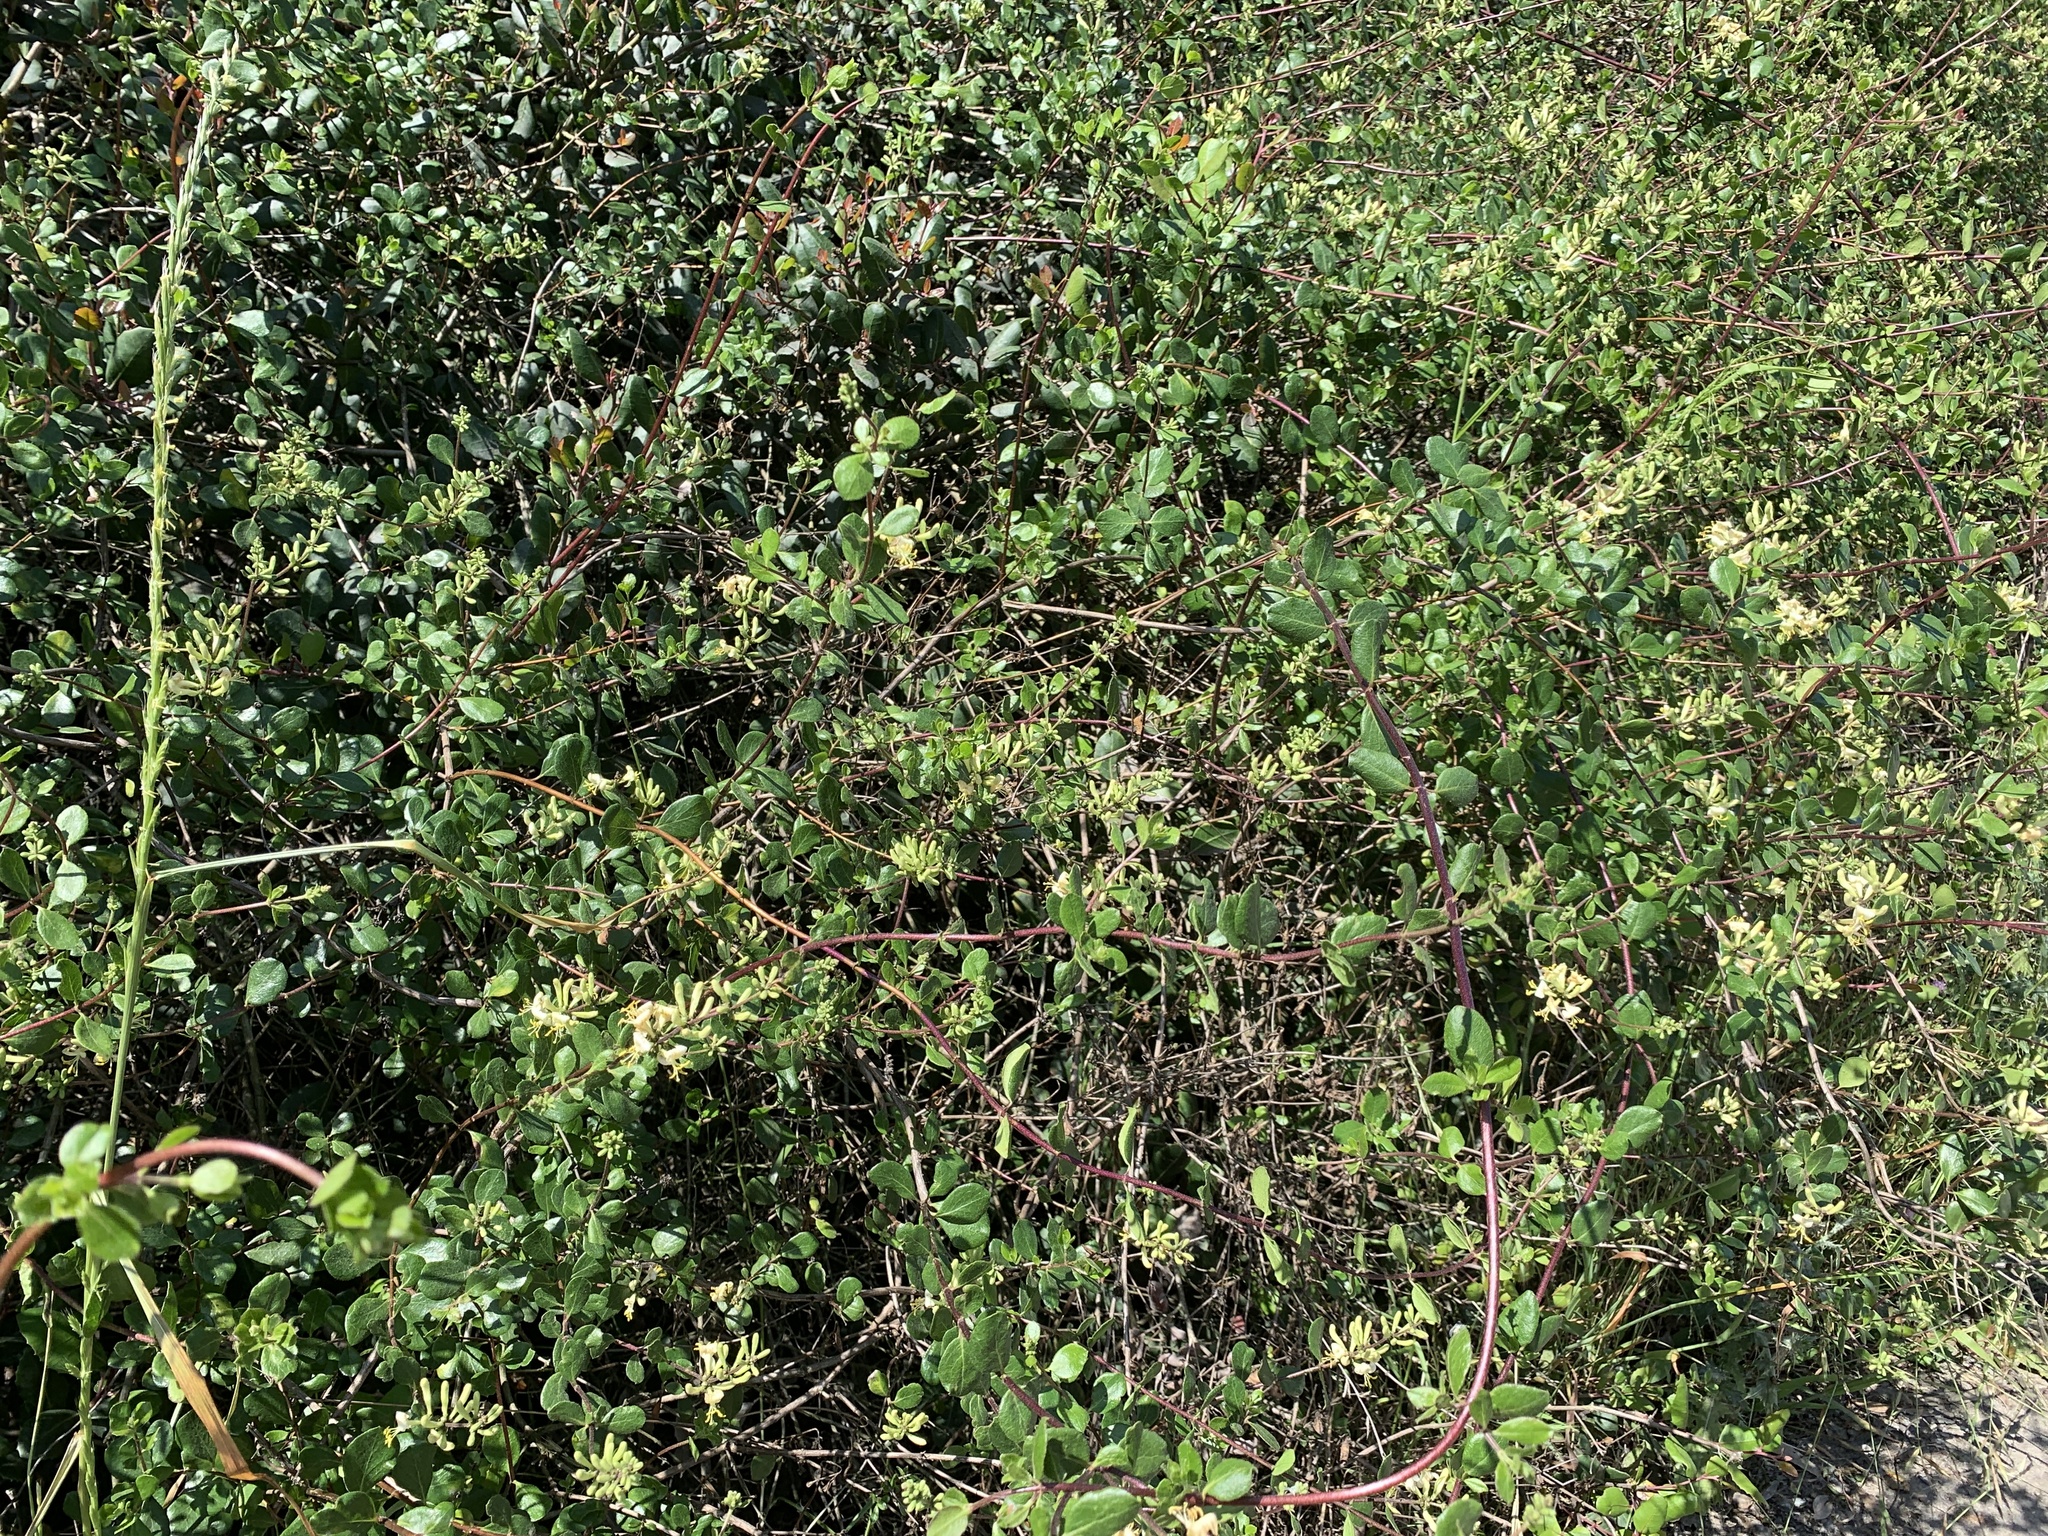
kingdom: Plantae
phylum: Tracheophyta
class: Magnoliopsida
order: Dipsacales
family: Caprifoliaceae
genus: Lonicera
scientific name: Lonicera subspicata
